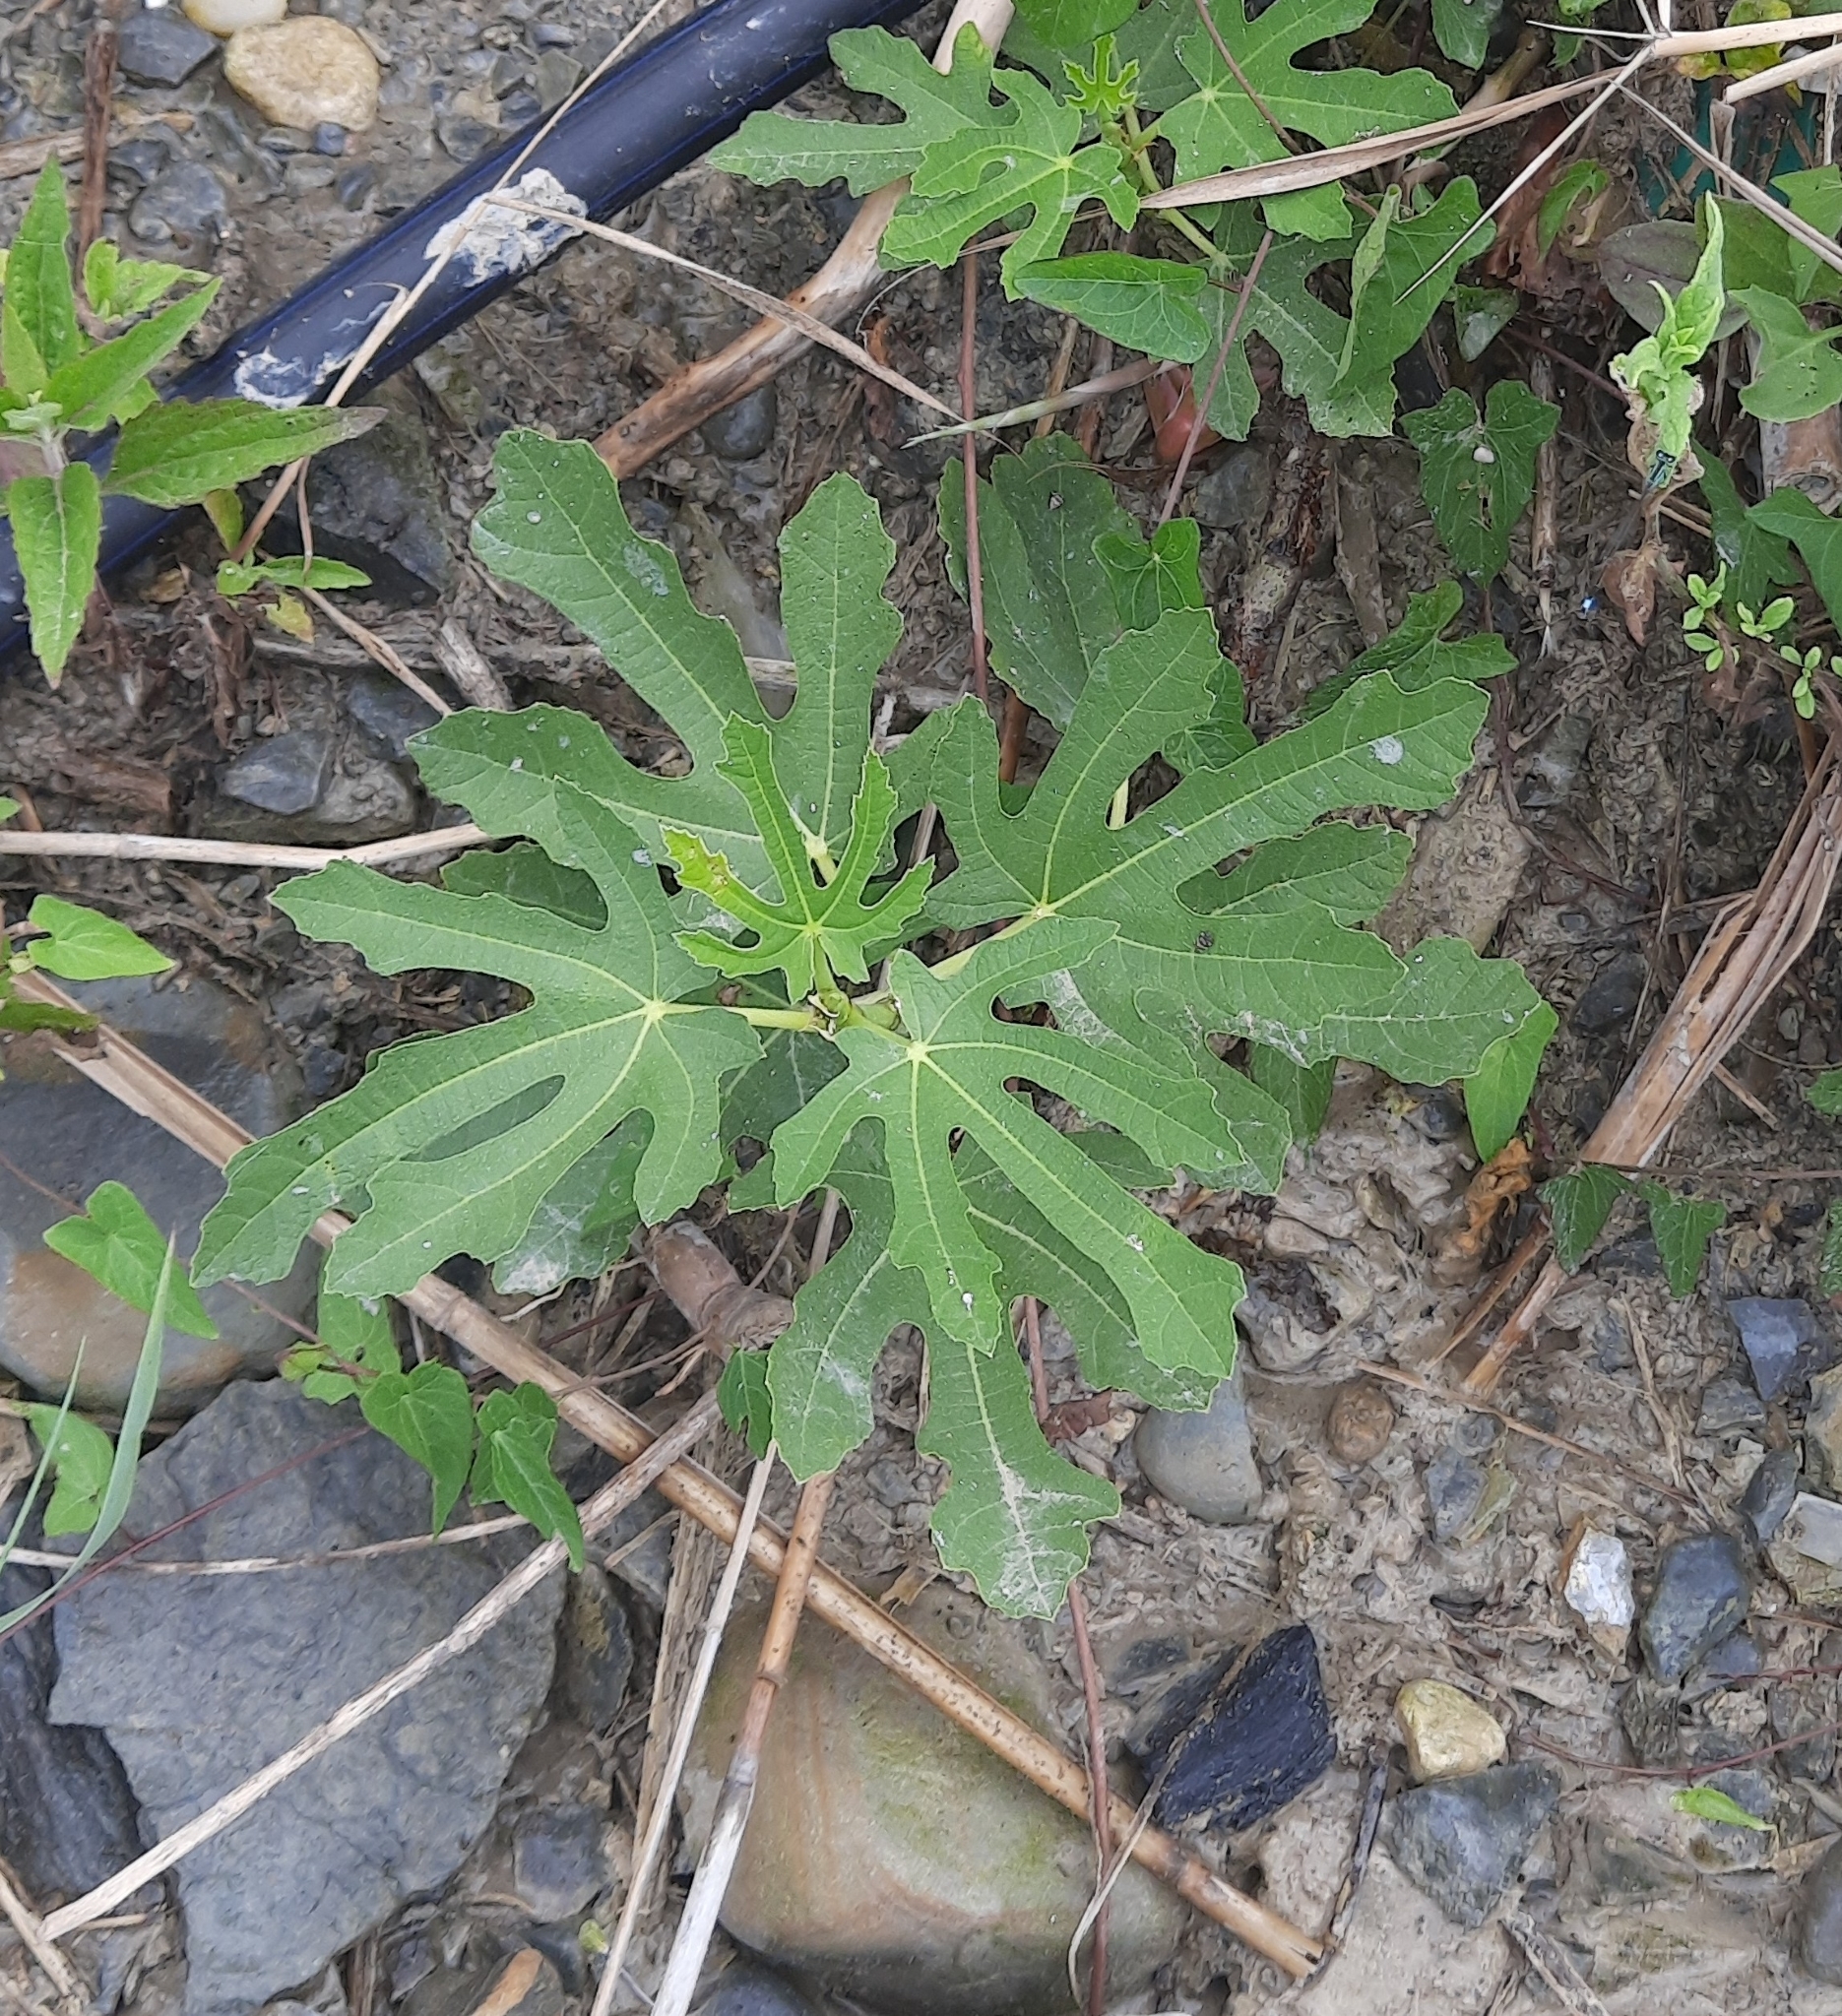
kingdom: Plantae
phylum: Tracheophyta
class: Magnoliopsida
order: Rosales
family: Moraceae
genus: Ficus
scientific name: Ficus carica
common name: Fig
